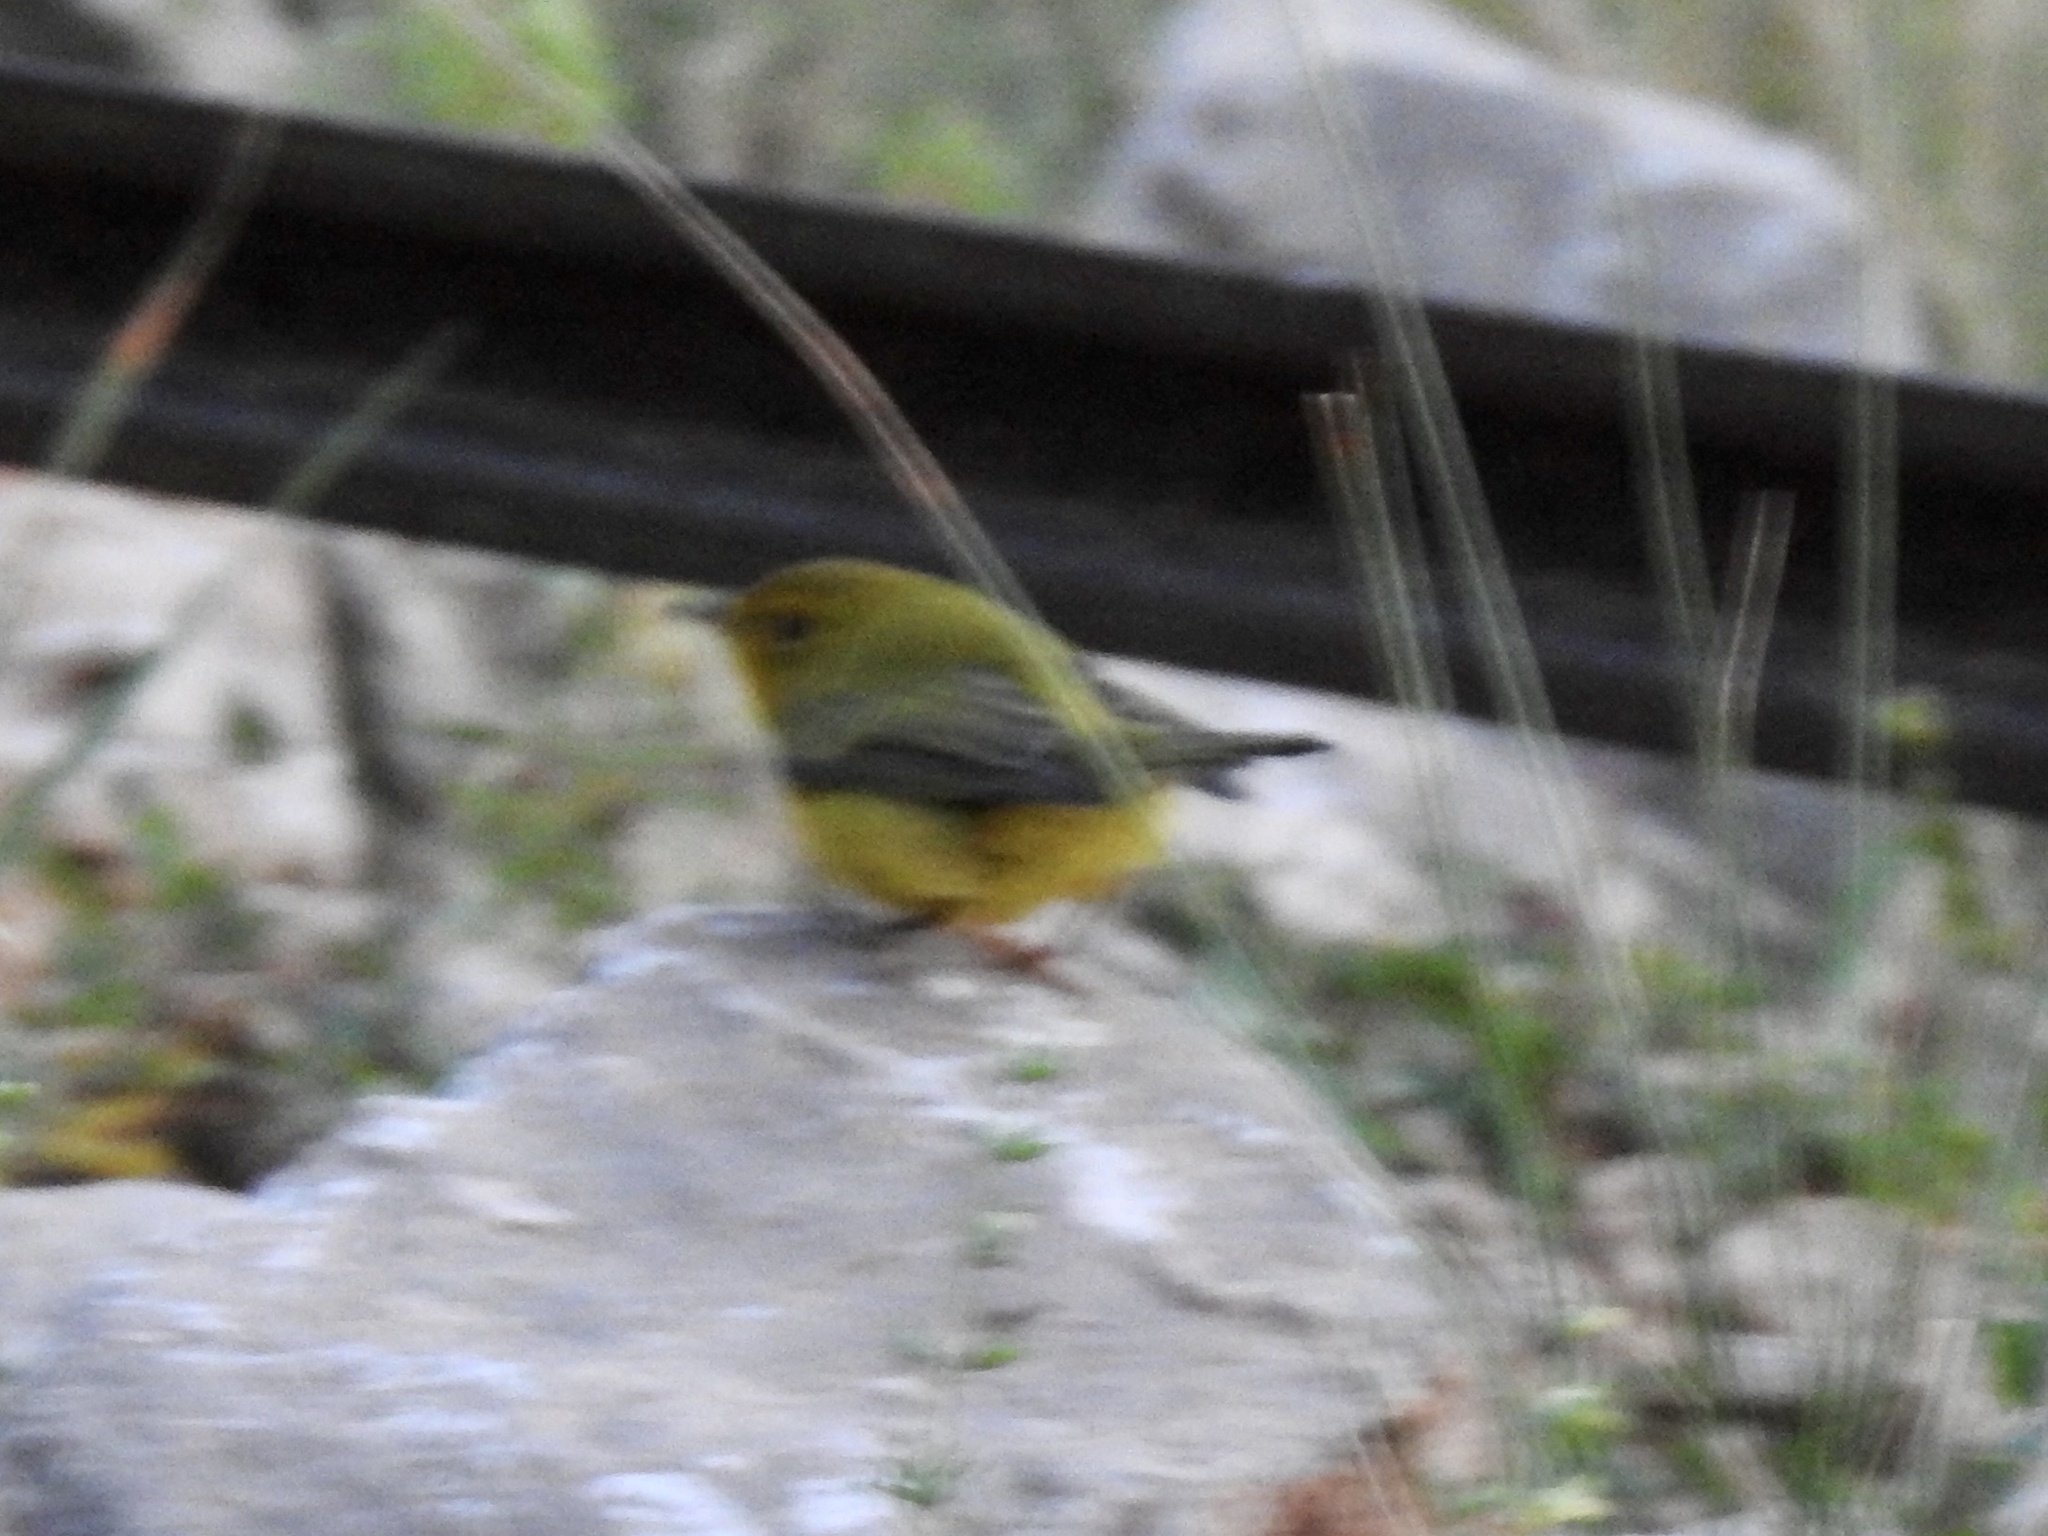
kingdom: Animalia
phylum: Chordata
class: Aves
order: Passeriformes
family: Parulidae
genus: Cardellina
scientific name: Cardellina pusilla
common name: Wilson's warbler
